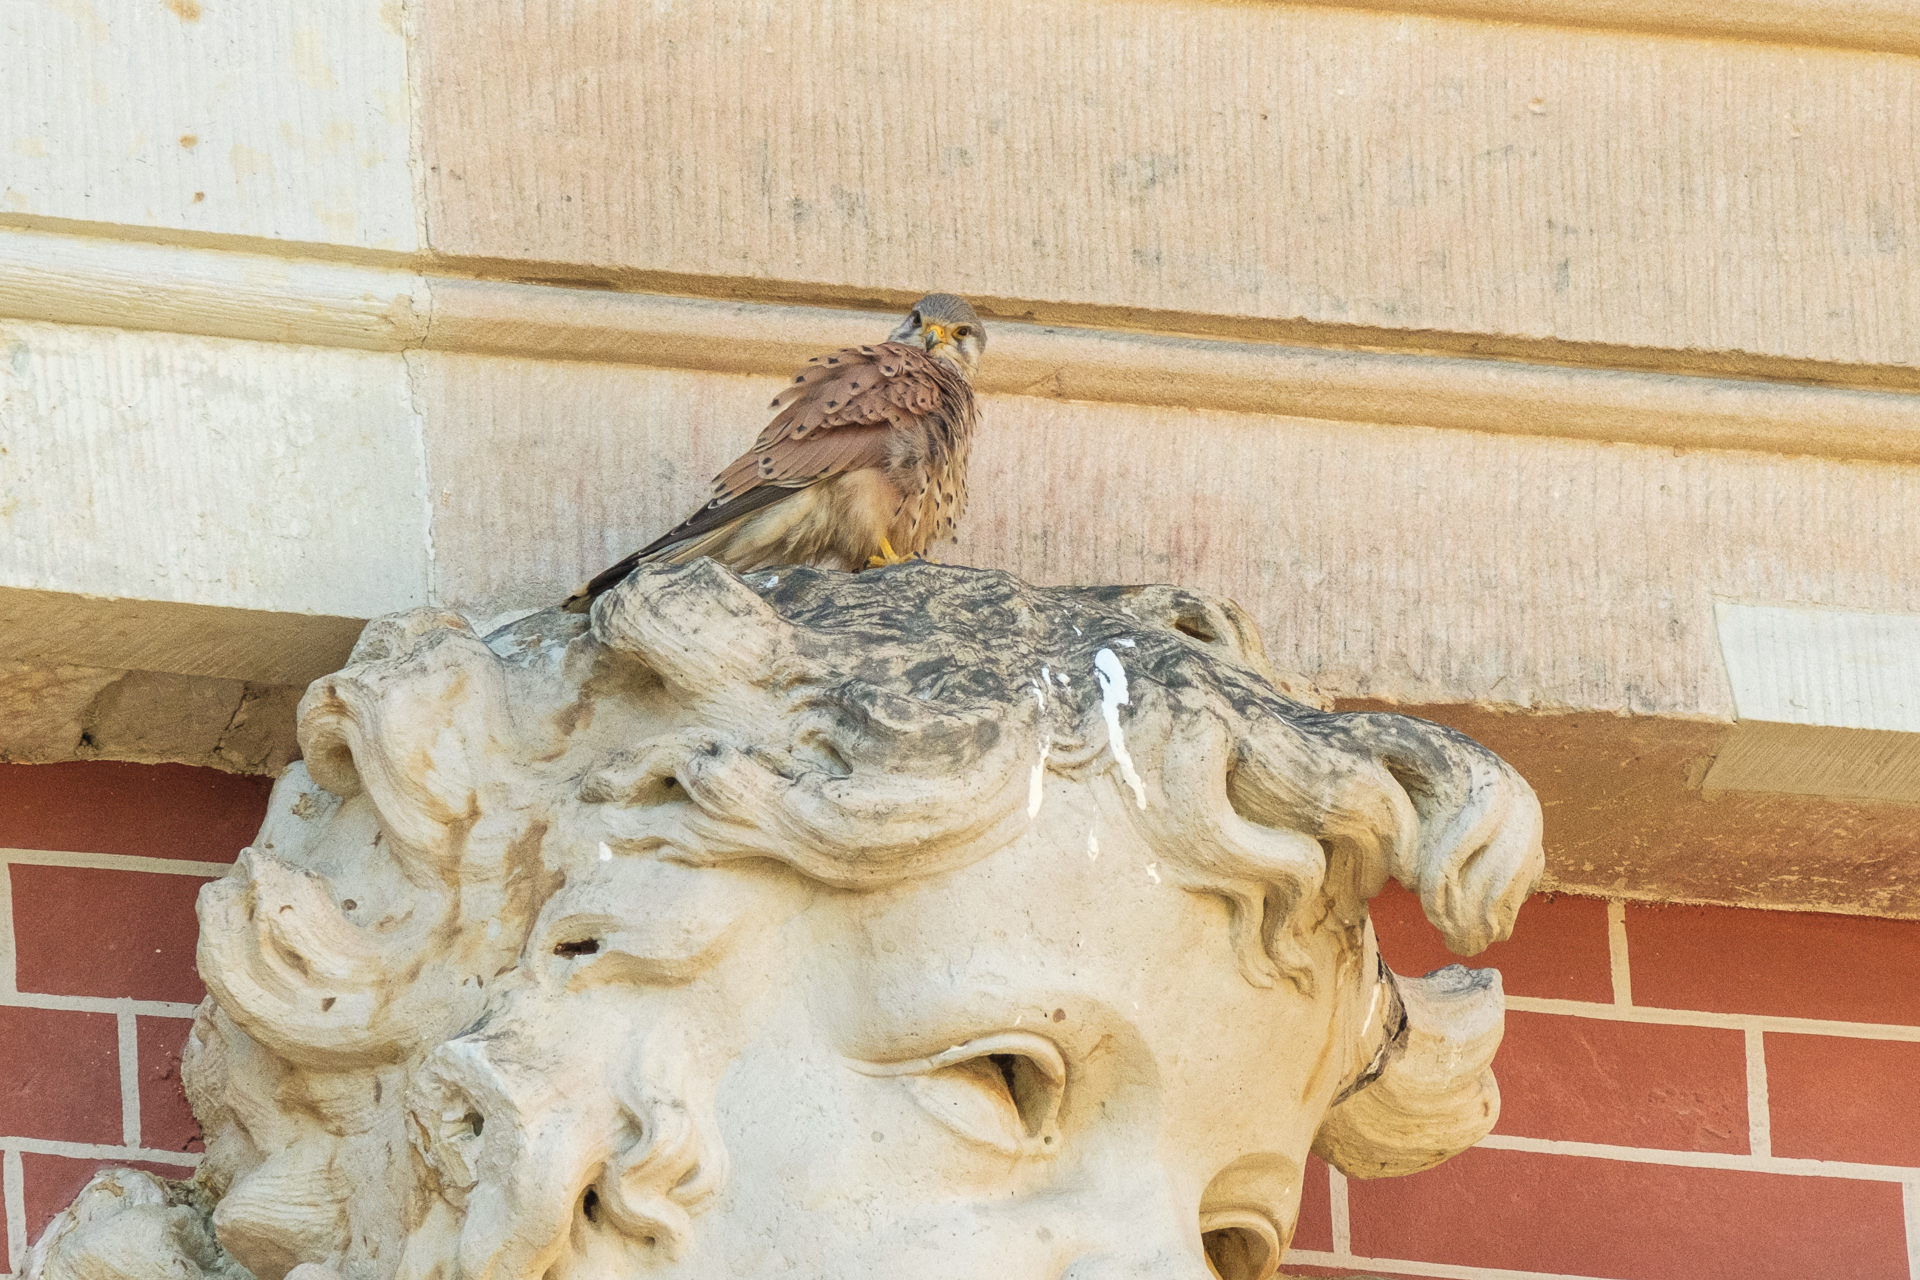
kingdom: Animalia
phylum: Chordata
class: Aves
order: Falconiformes
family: Falconidae
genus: Falco
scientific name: Falco tinnunculus
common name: Common kestrel
